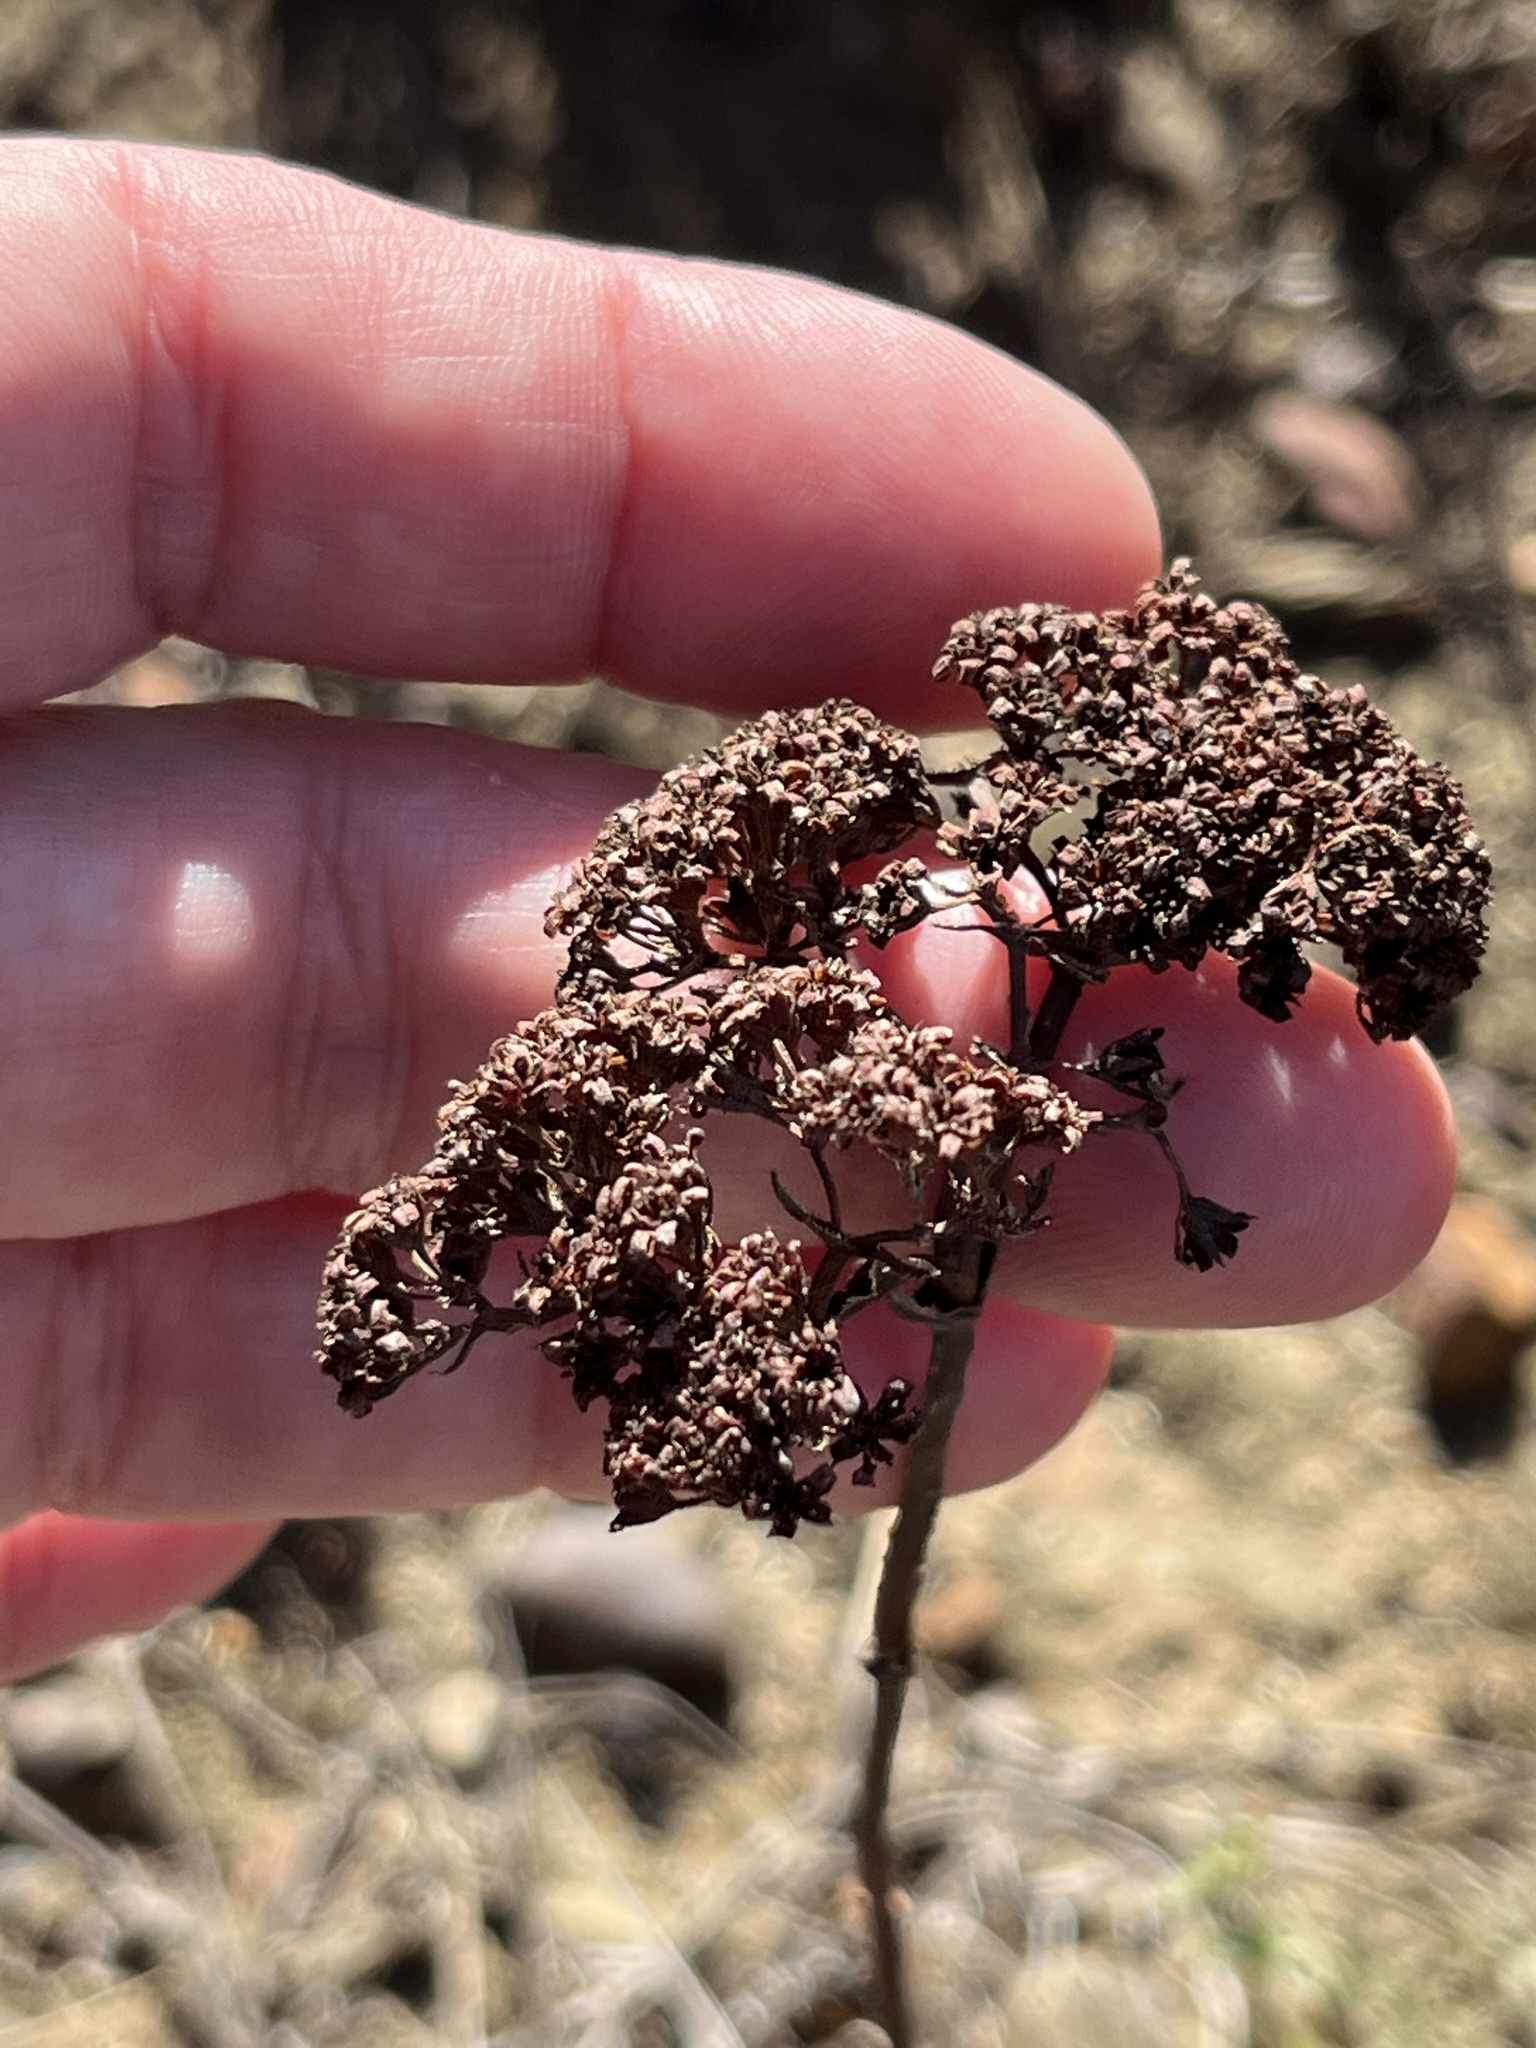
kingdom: Plantae
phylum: Tracheophyta
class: Magnoliopsida
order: Saxifragales
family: Crassulaceae
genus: Crassula
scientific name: Crassula ciliata
